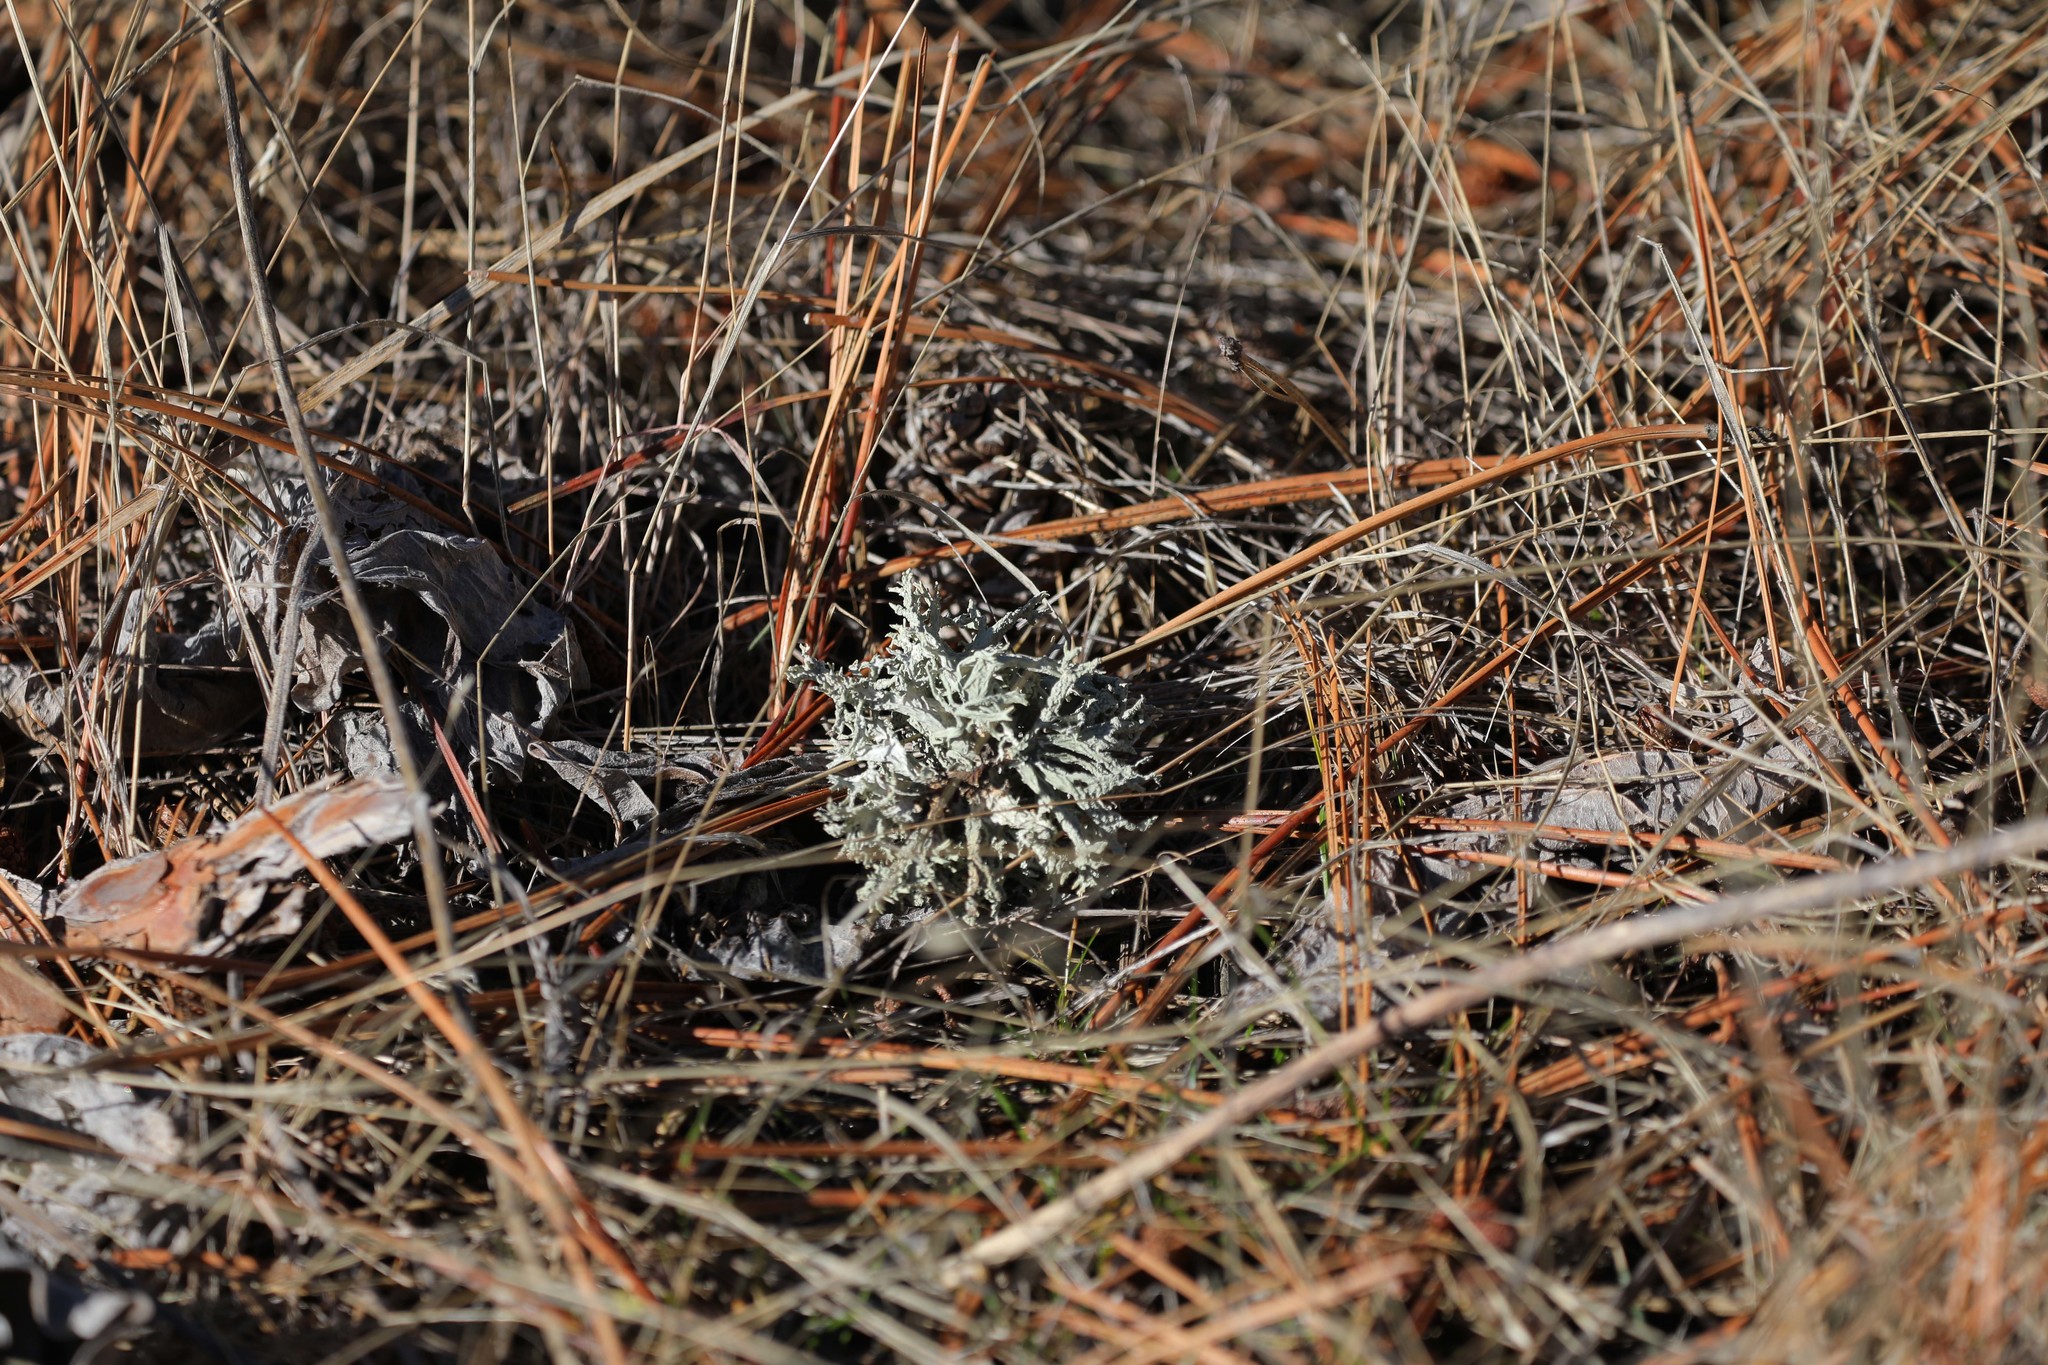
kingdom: Fungi
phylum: Ascomycota
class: Lecanoromycetes
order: Lecanorales
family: Parmeliaceae
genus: Evernia
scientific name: Evernia prunastri
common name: Oak moss
